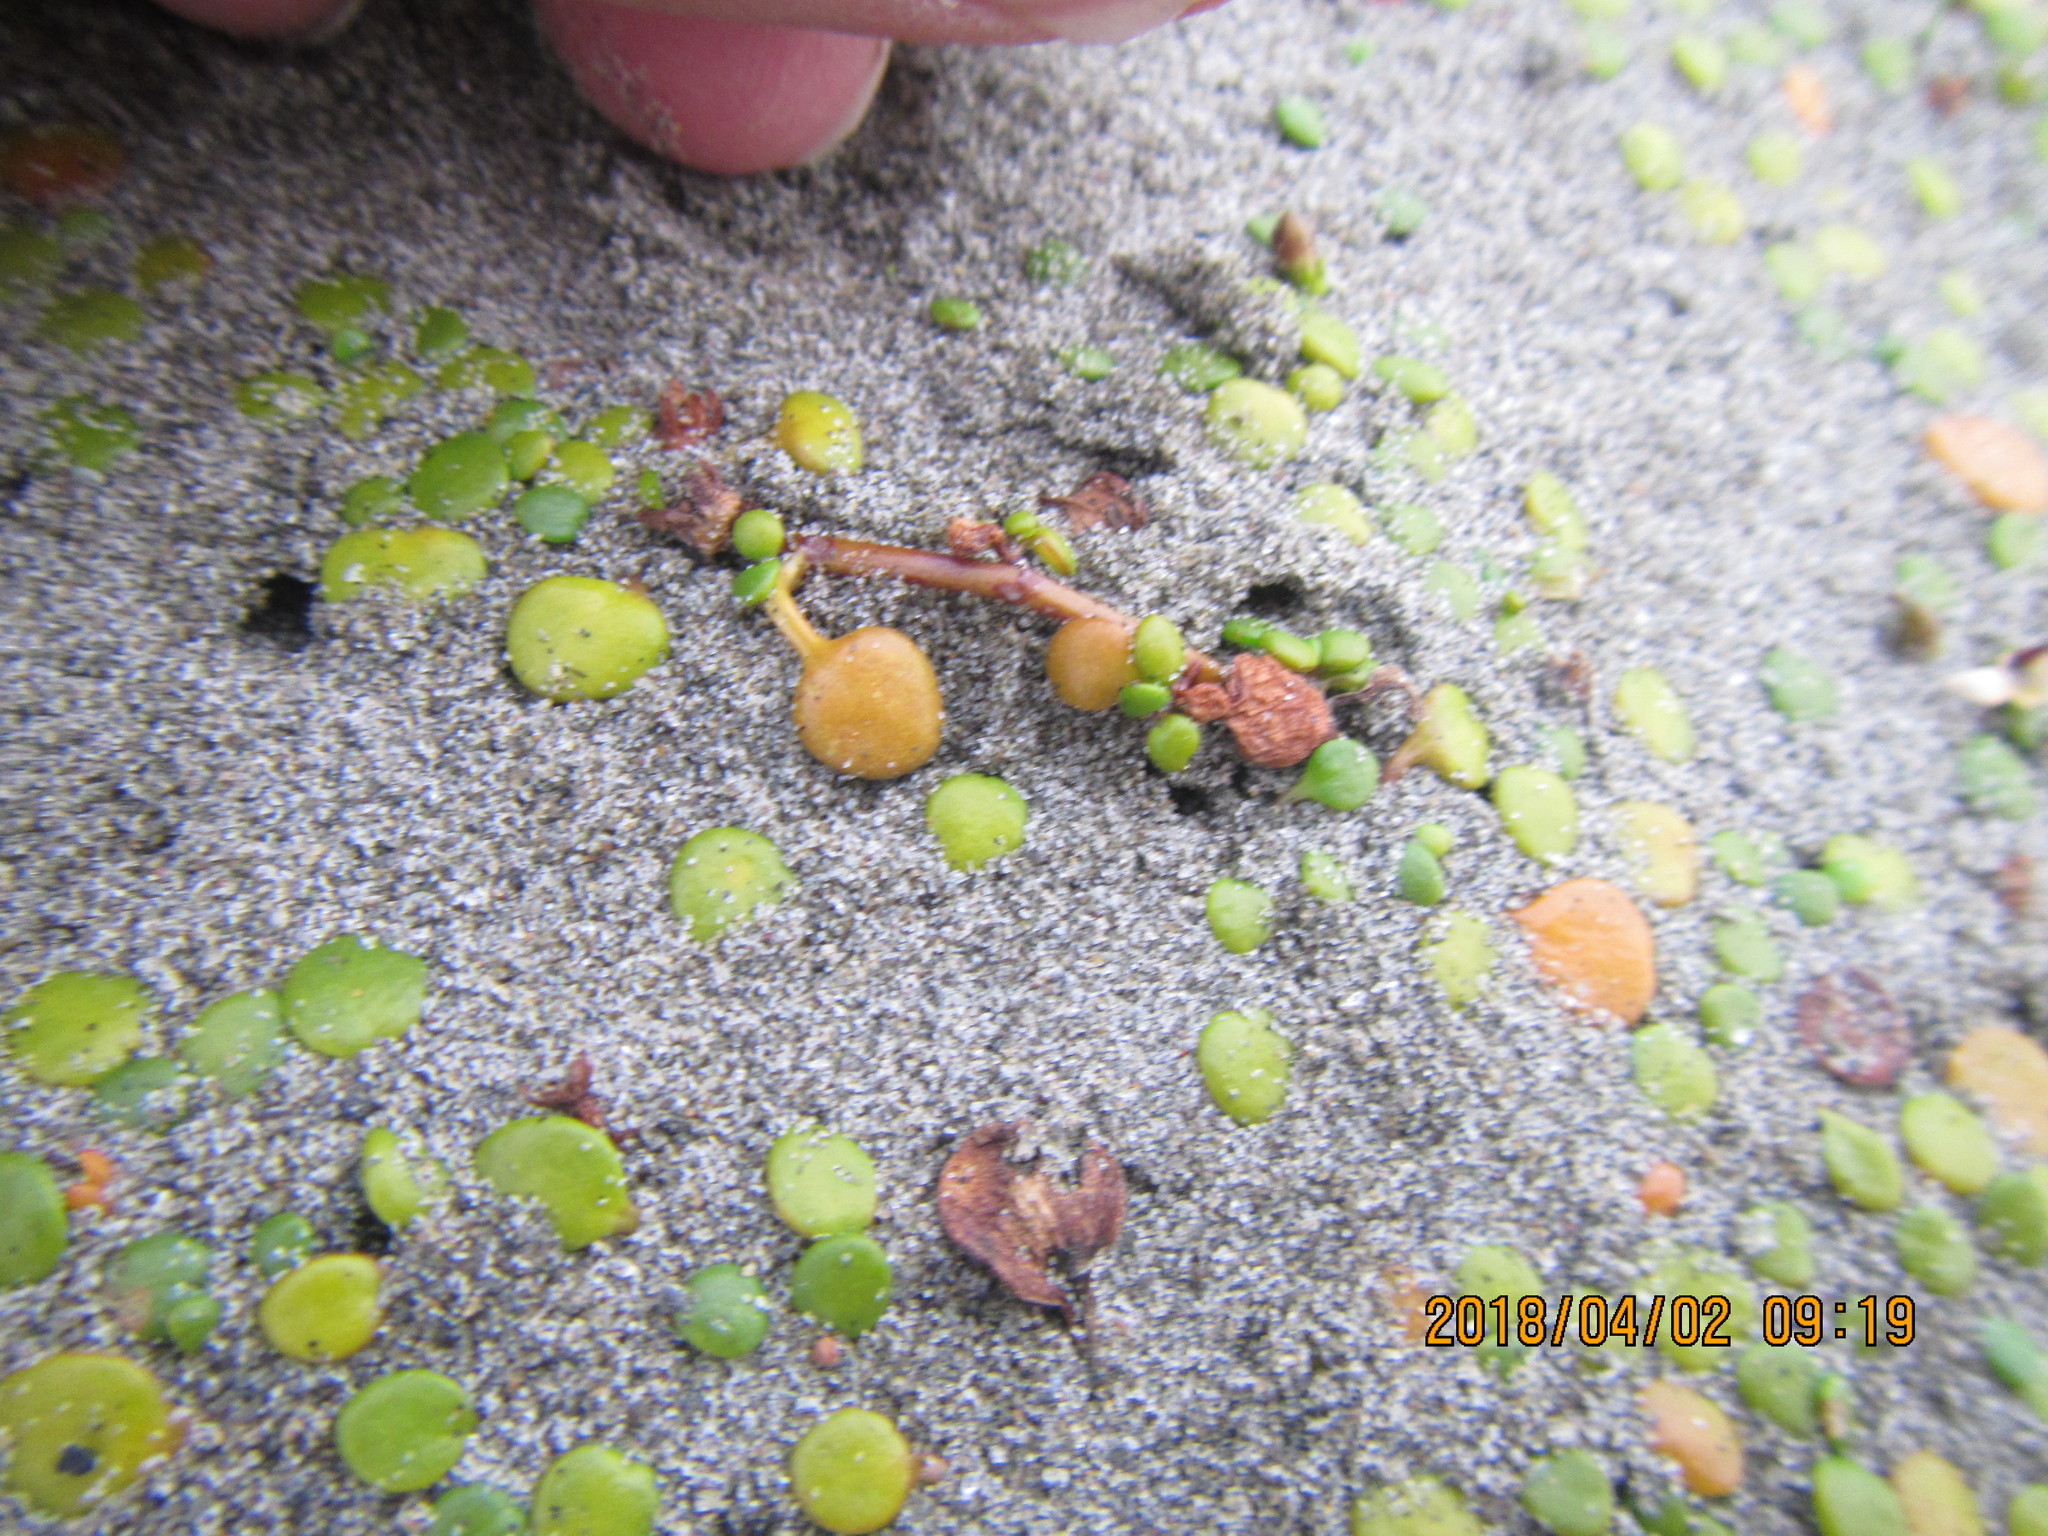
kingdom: Plantae
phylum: Tracheophyta
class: Magnoliopsida
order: Asterales
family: Goodeniaceae
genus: Goodenia
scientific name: Goodenia heenanii
